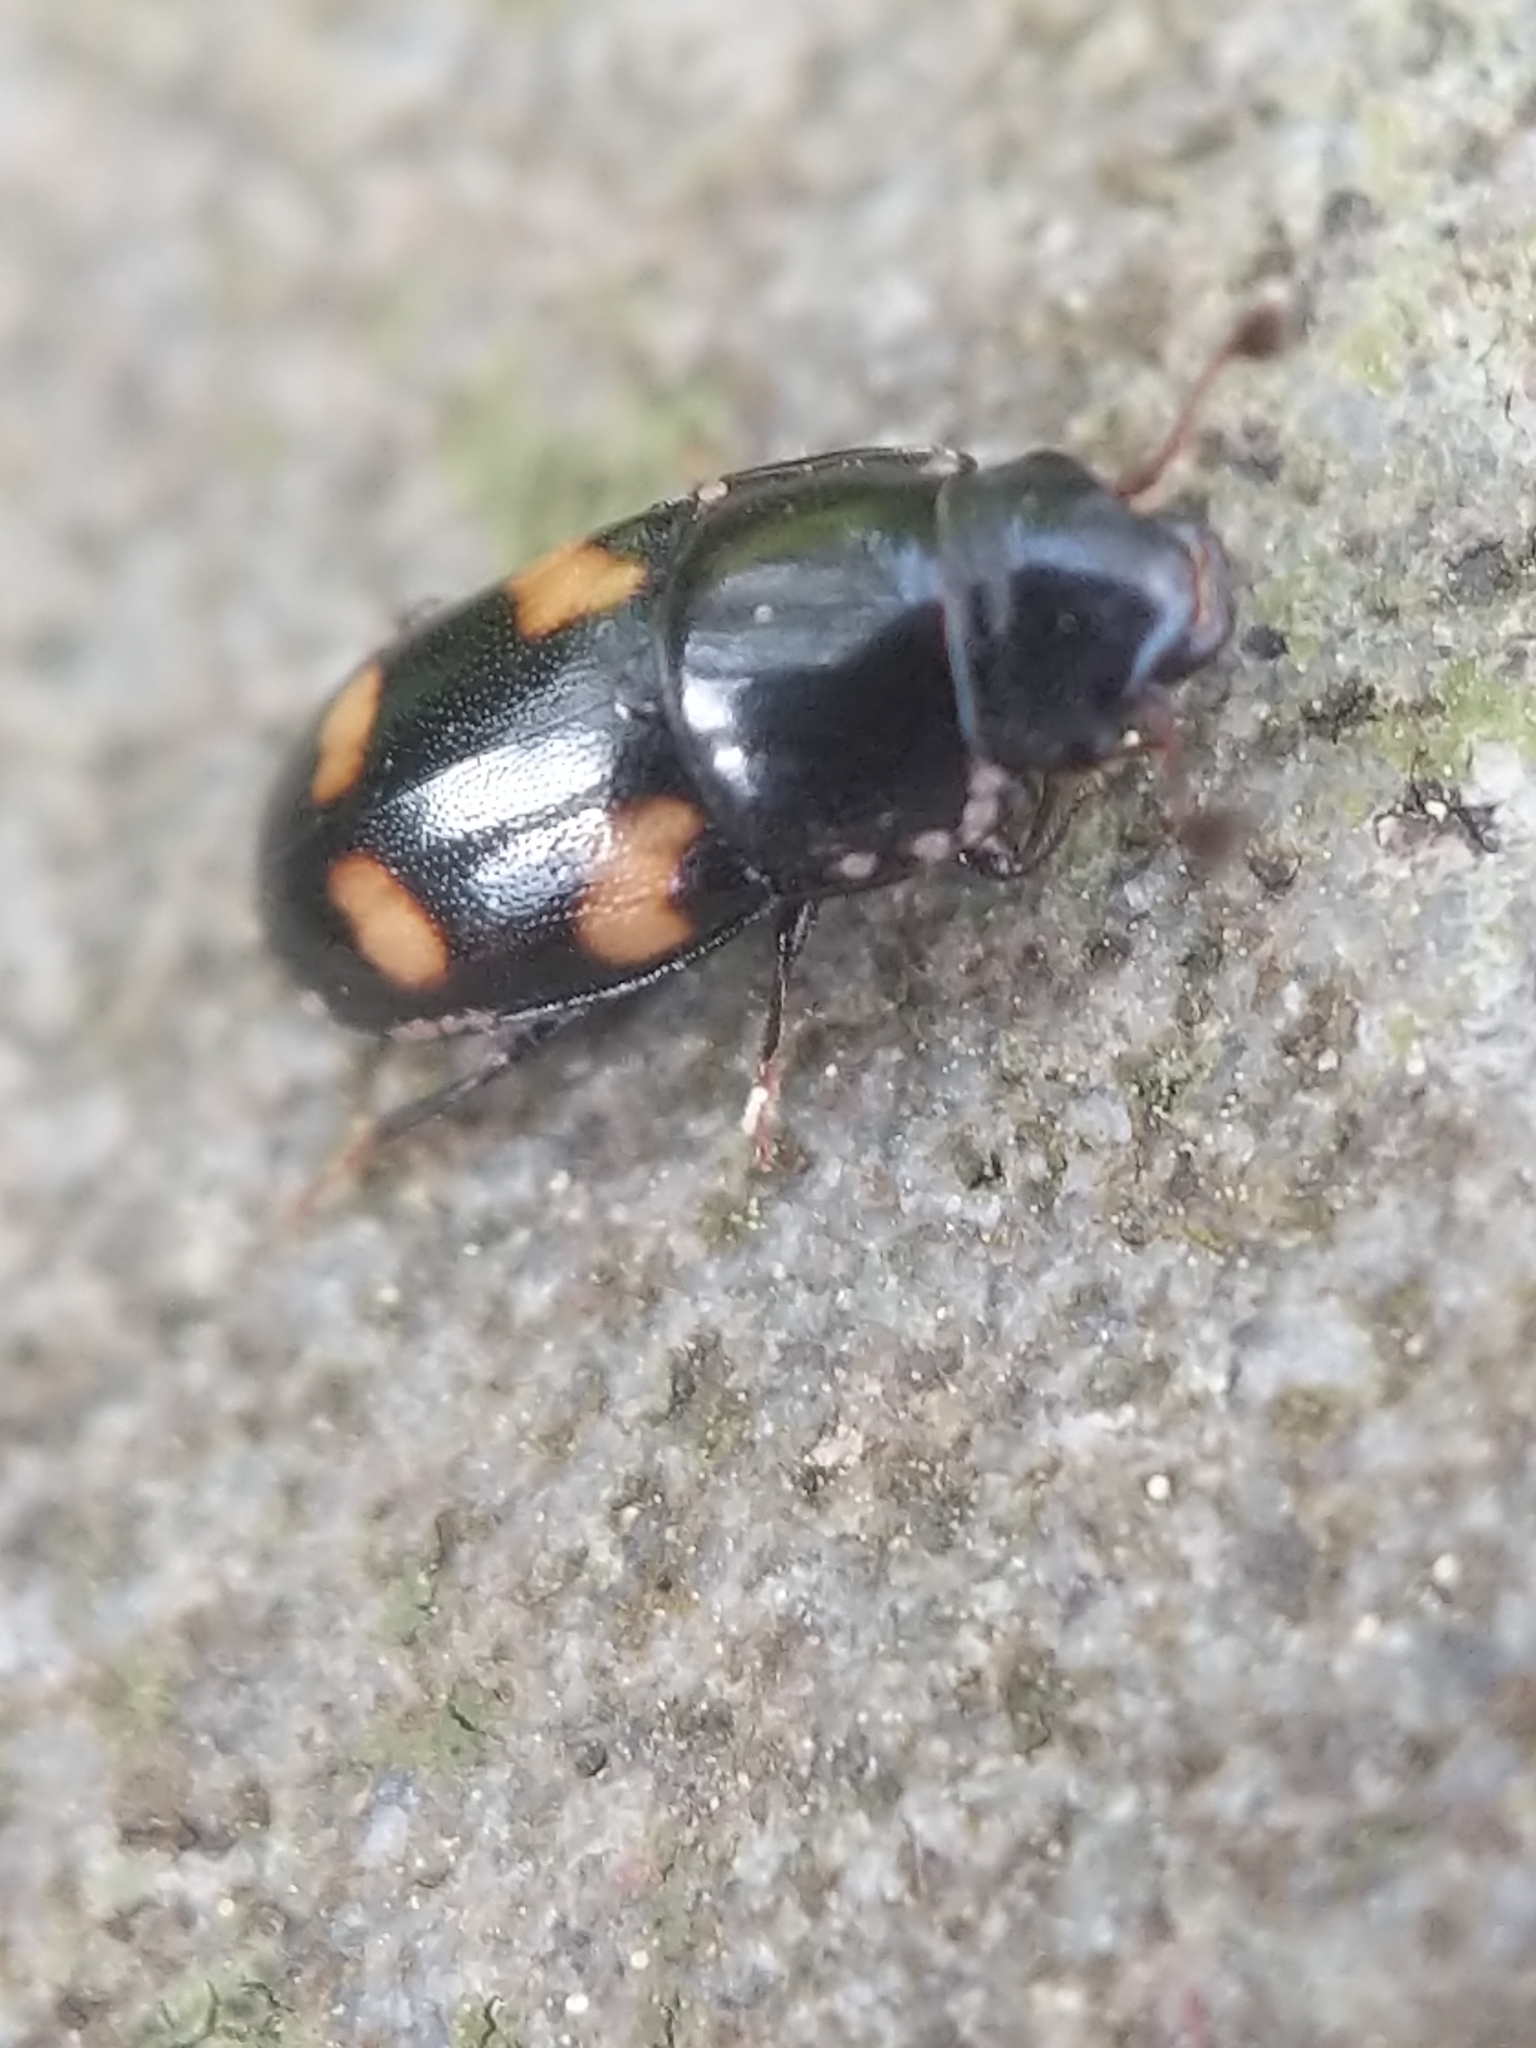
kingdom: Animalia
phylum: Arthropoda
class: Insecta
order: Coleoptera
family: Nitidulidae
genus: Glischrochilus
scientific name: Glischrochilus quadrisignatus
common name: Picnic beetle
